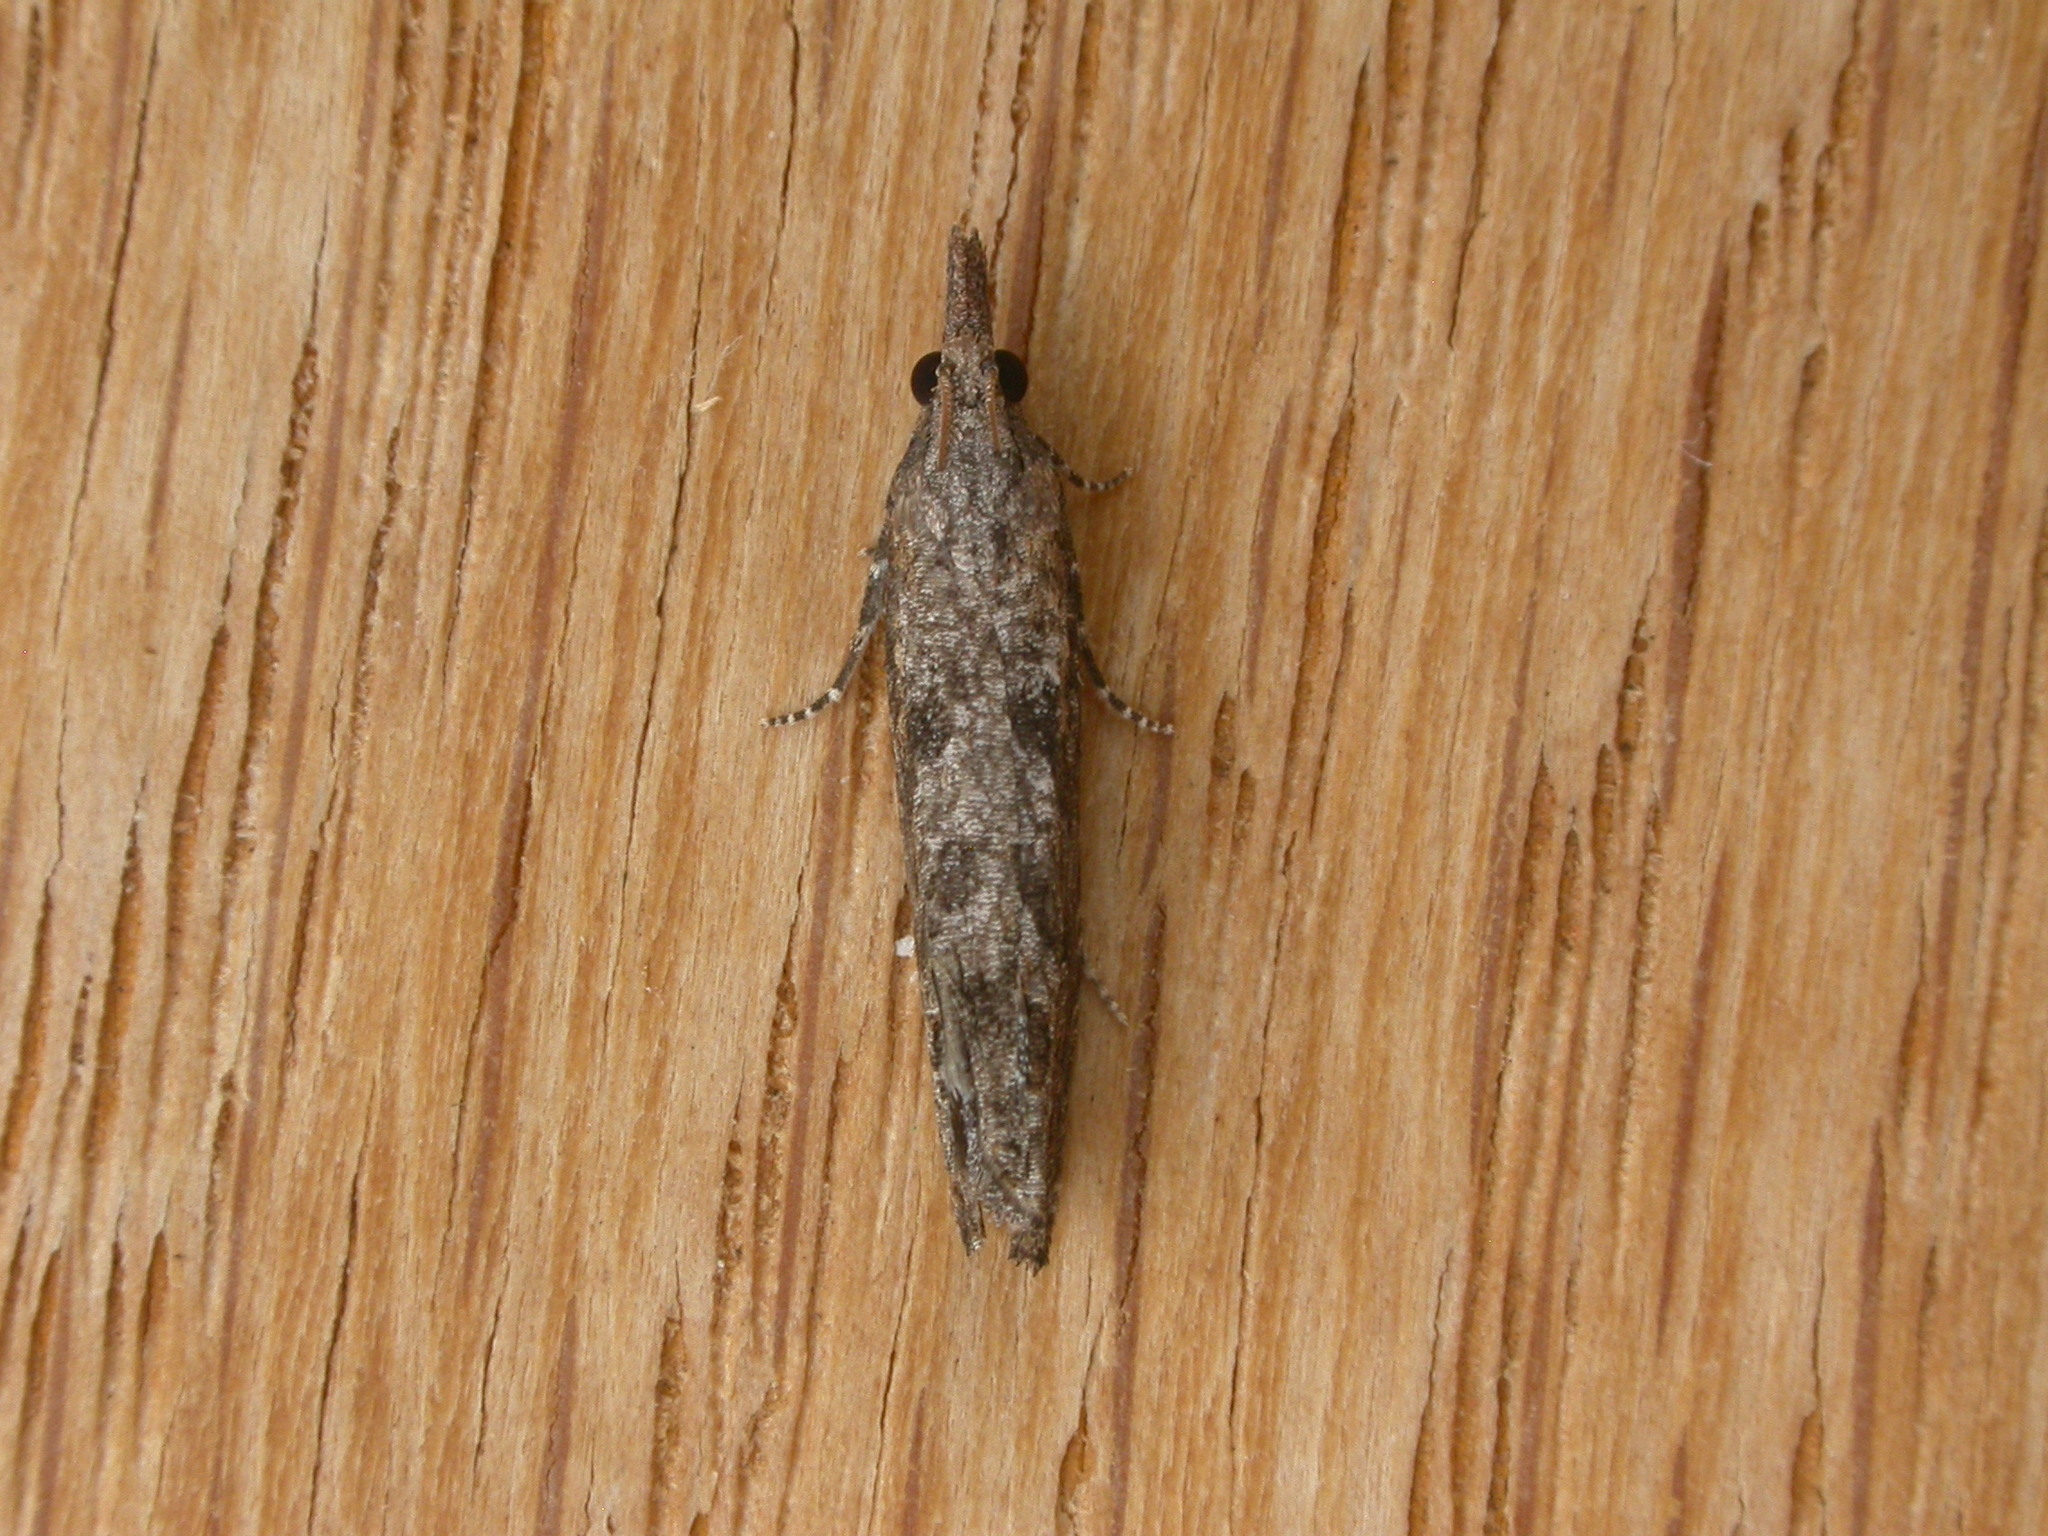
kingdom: Animalia
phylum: Arthropoda
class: Insecta
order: Lepidoptera
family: Tortricidae
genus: Strepsicrates
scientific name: Strepsicrates infensa
